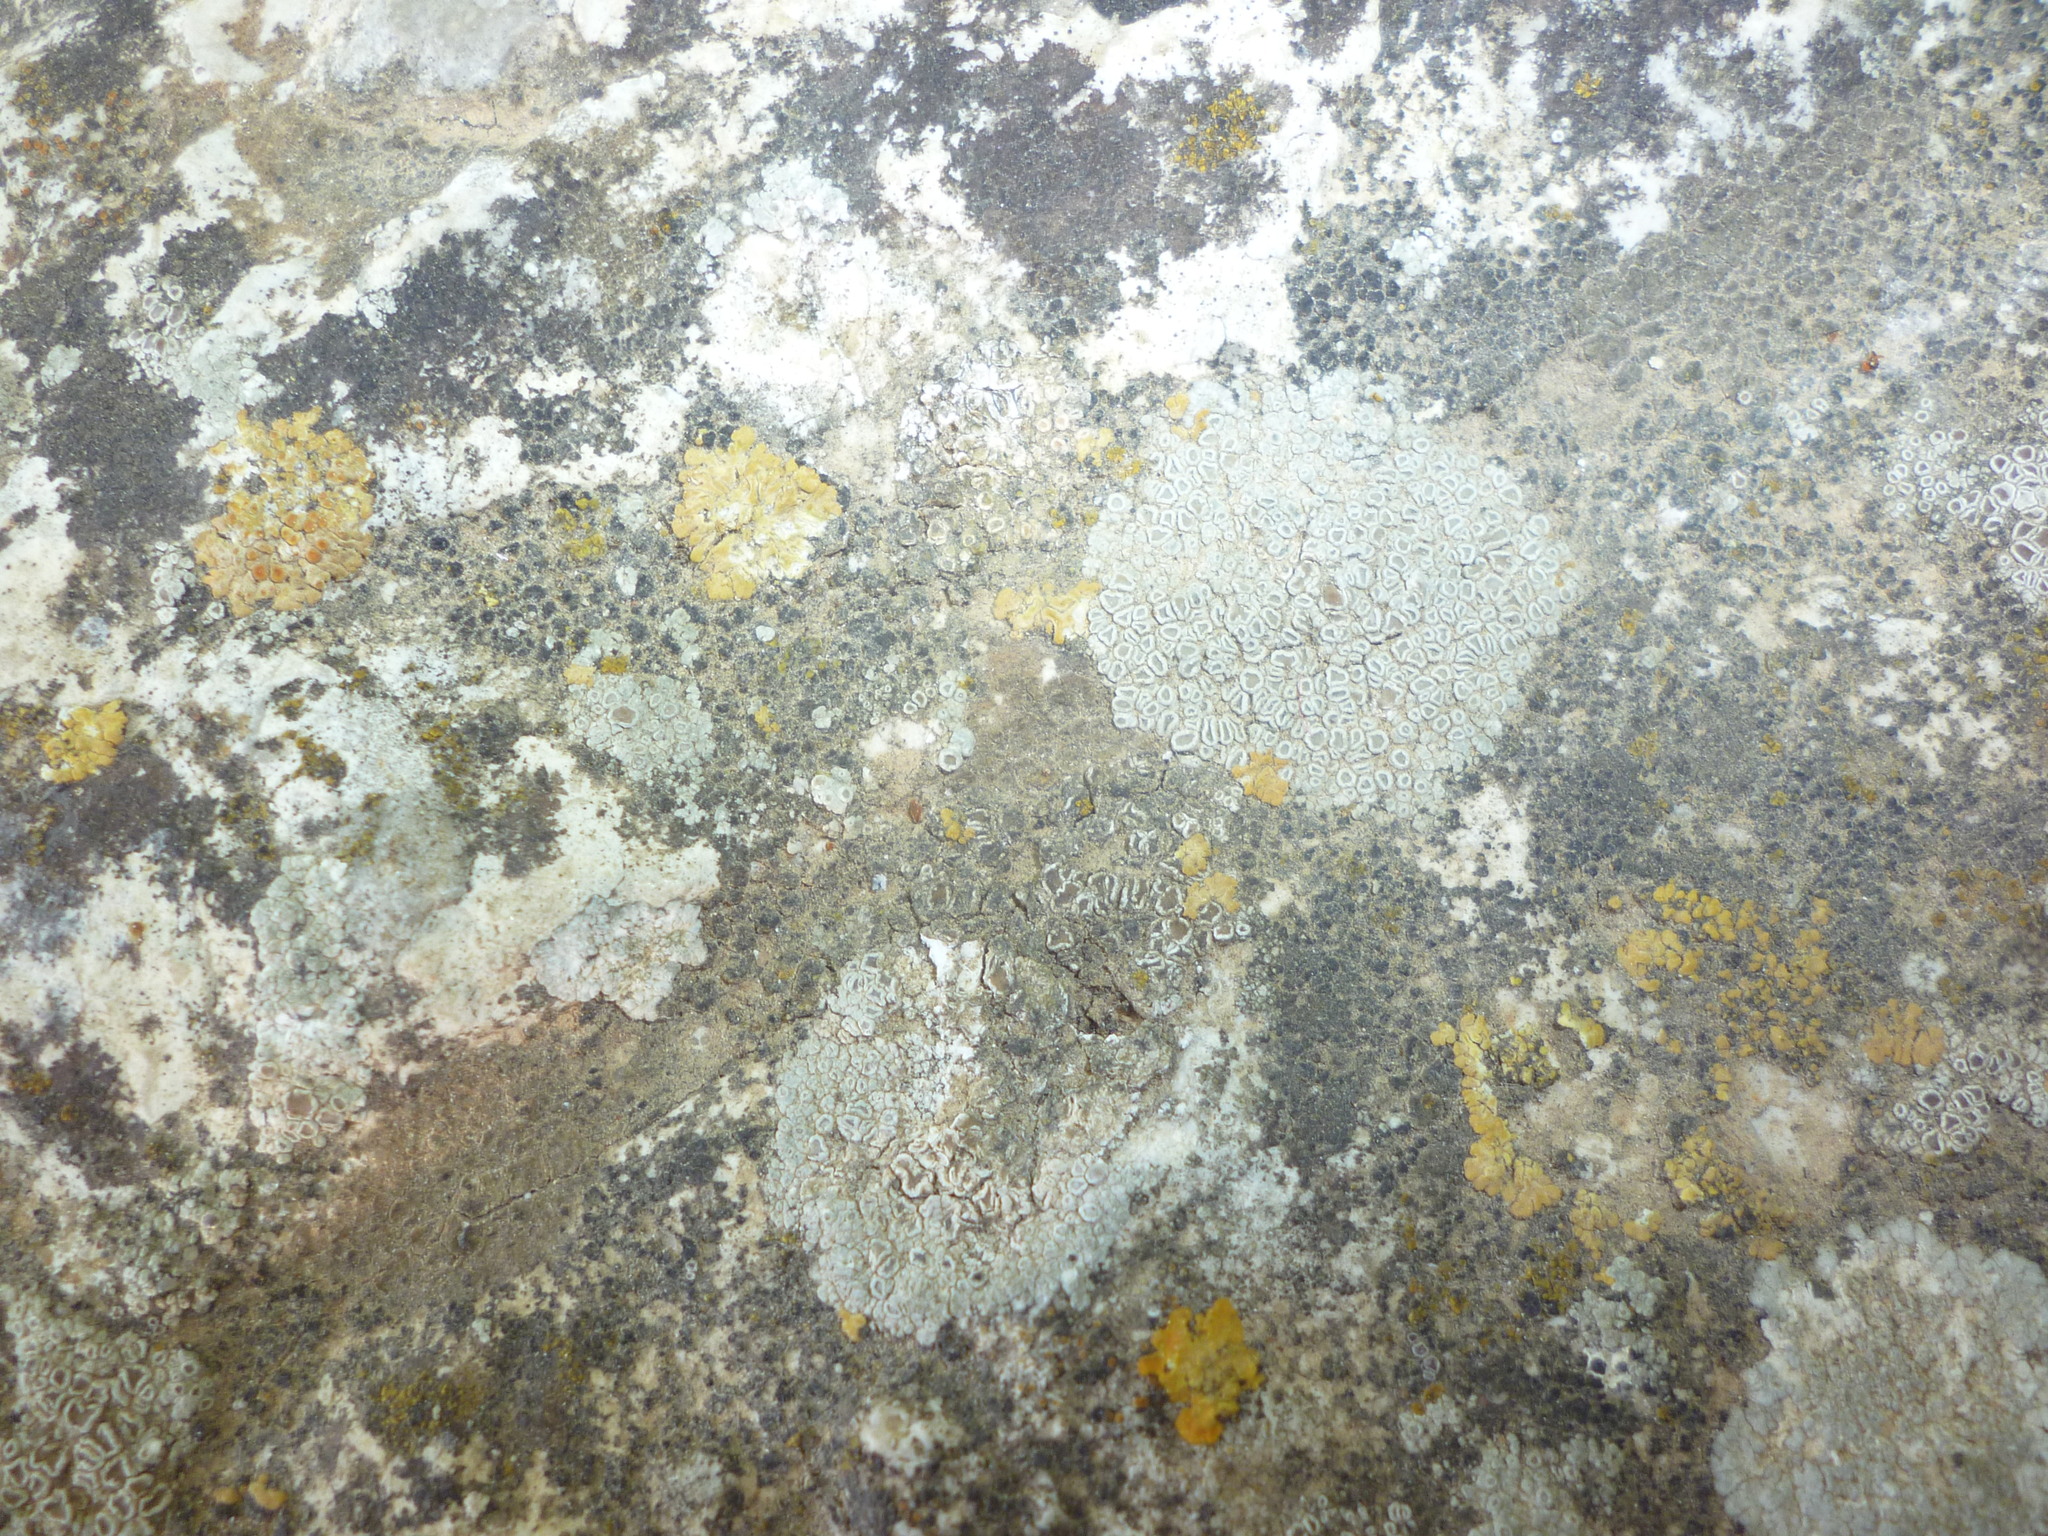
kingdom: Fungi
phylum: Ascomycota
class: Lecanoromycetes
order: Lecanorales
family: Lecanoraceae
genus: Polyozosia
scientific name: Polyozosia albescens
